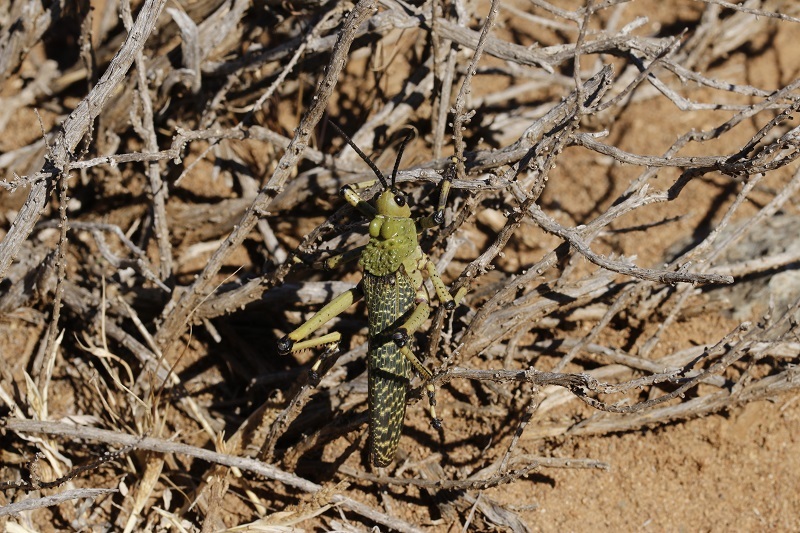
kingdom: Animalia
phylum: Arthropoda
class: Insecta
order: Orthoptera
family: Pyrgomorphidae
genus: Phymateus
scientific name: Phymateus leprosus
